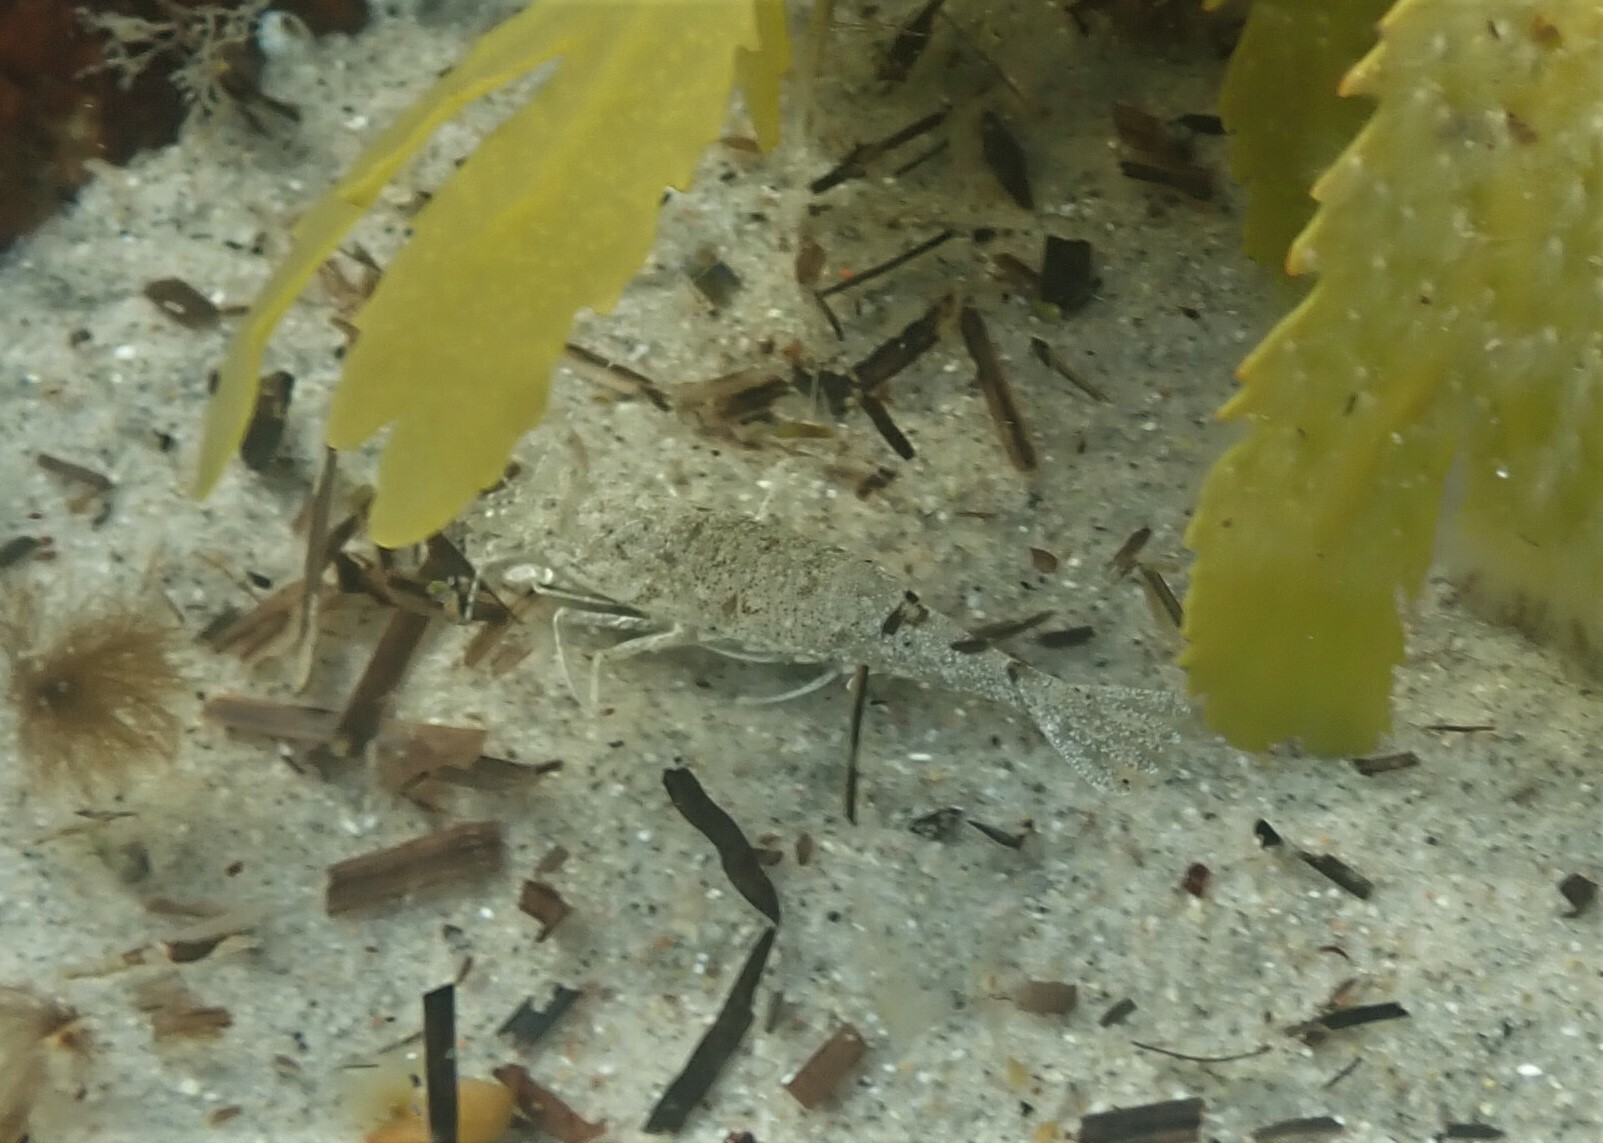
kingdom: Animalia
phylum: Arthropoda
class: Malacostraca
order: Decapoda
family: Crangonidae
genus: Crangon
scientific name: Crangon crangon
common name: Brown shrimp
